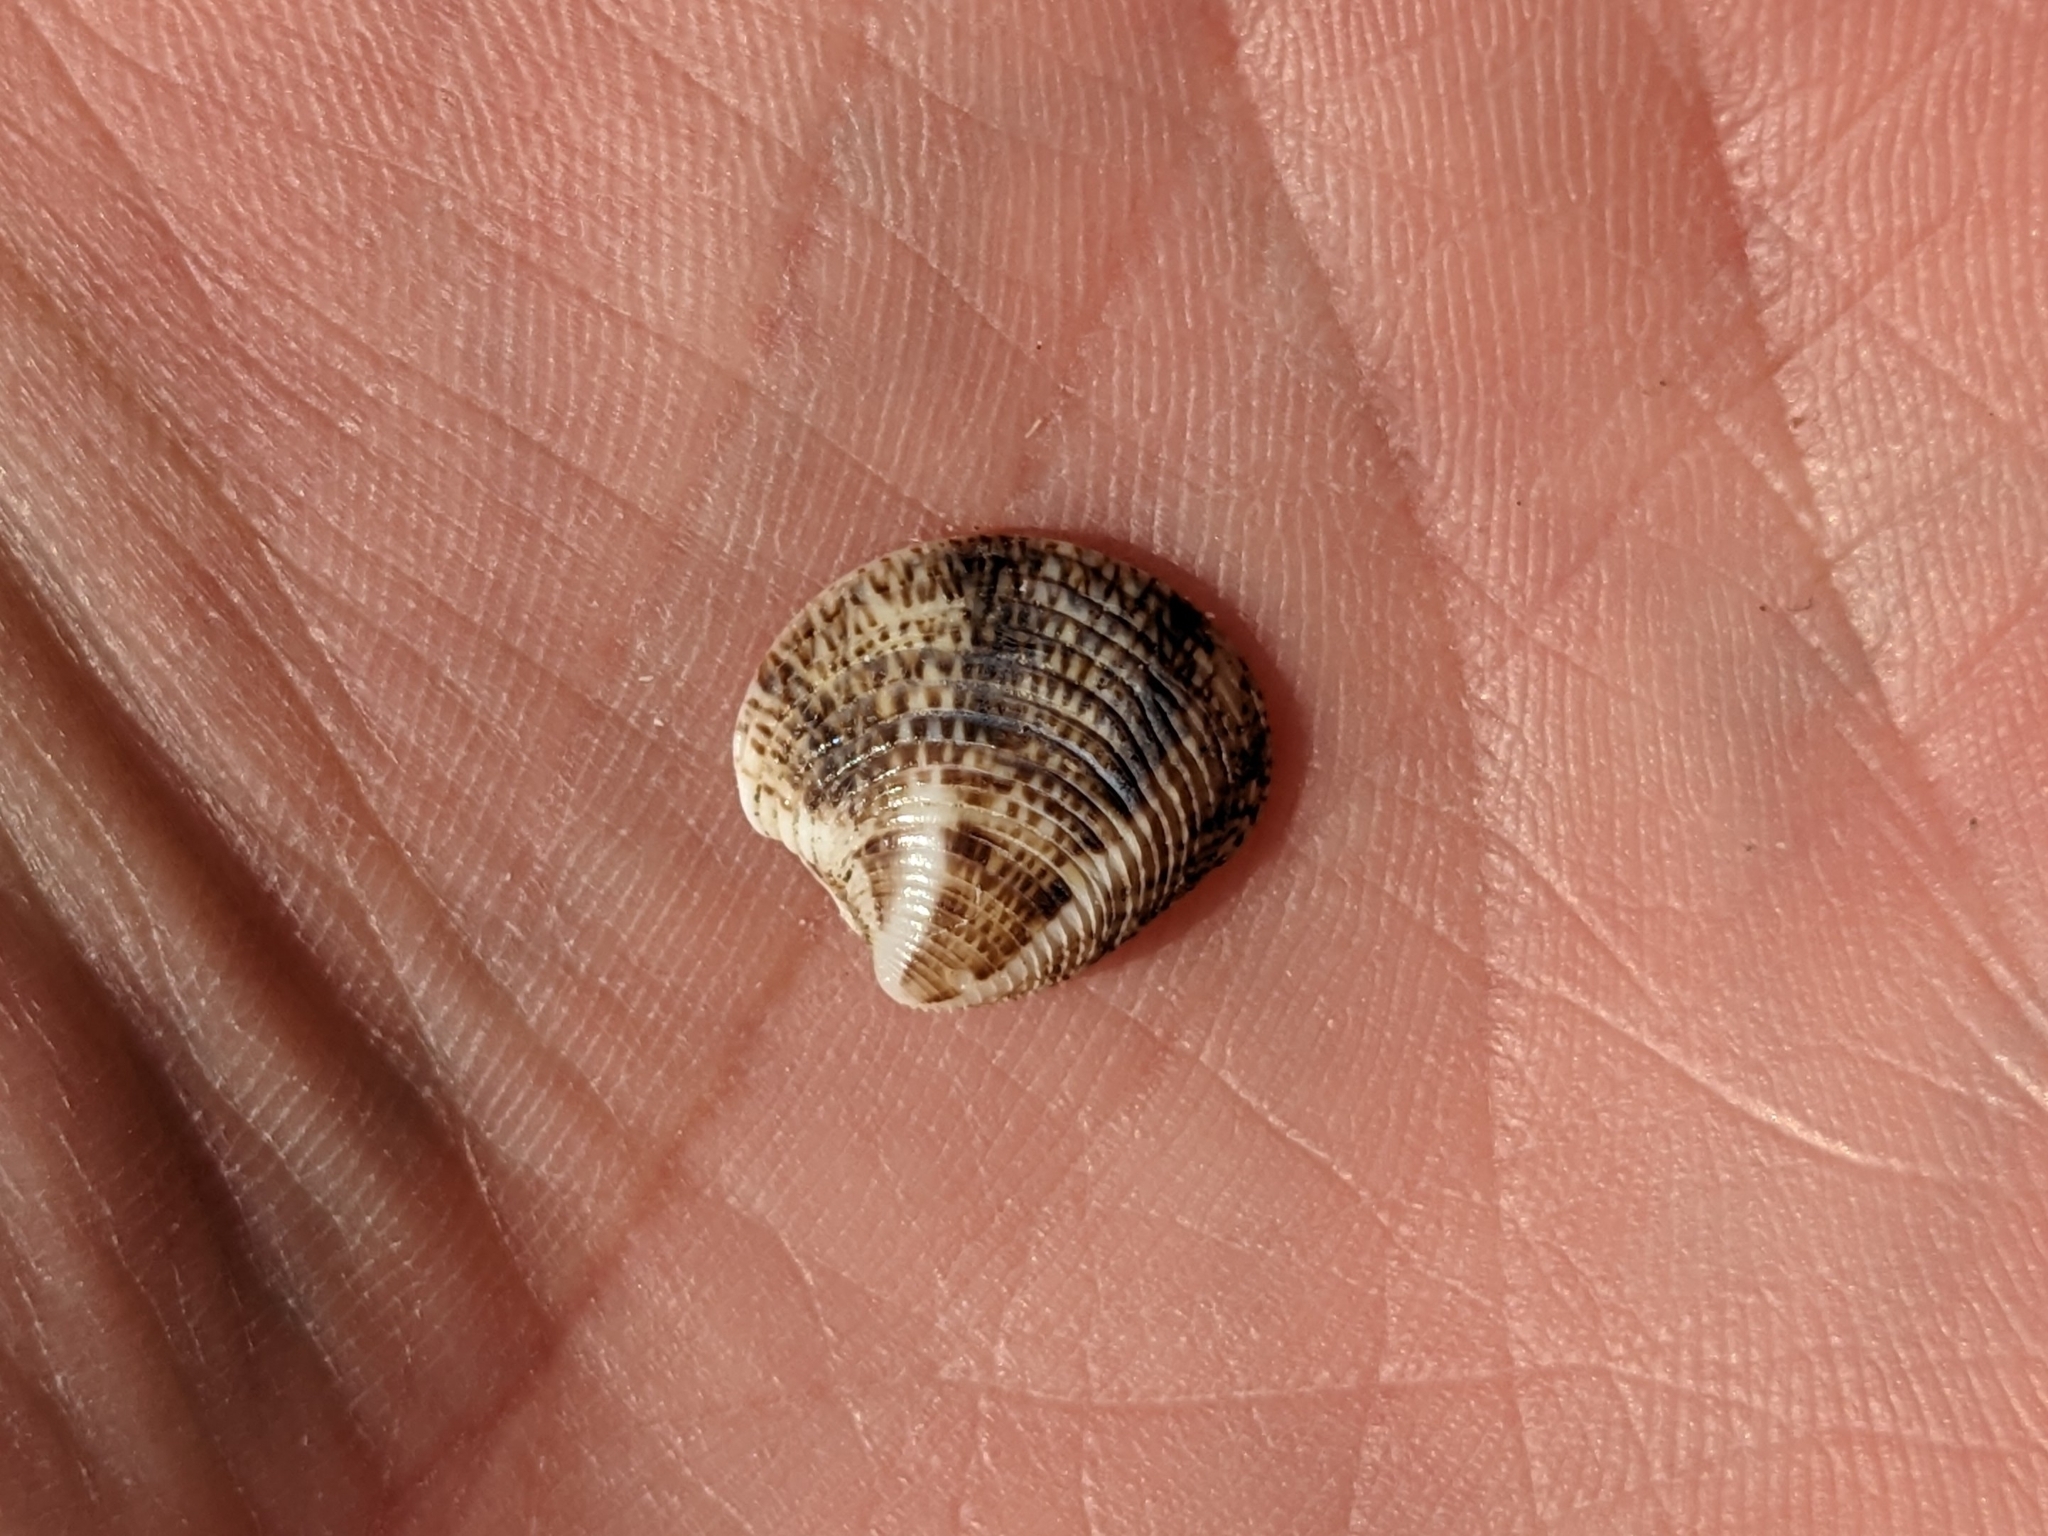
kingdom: Animalia
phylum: Mollusca
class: Bivalvia
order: Venerida
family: Veneridae
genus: Chamelea
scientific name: Chamelea gallina
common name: Chicken venus
